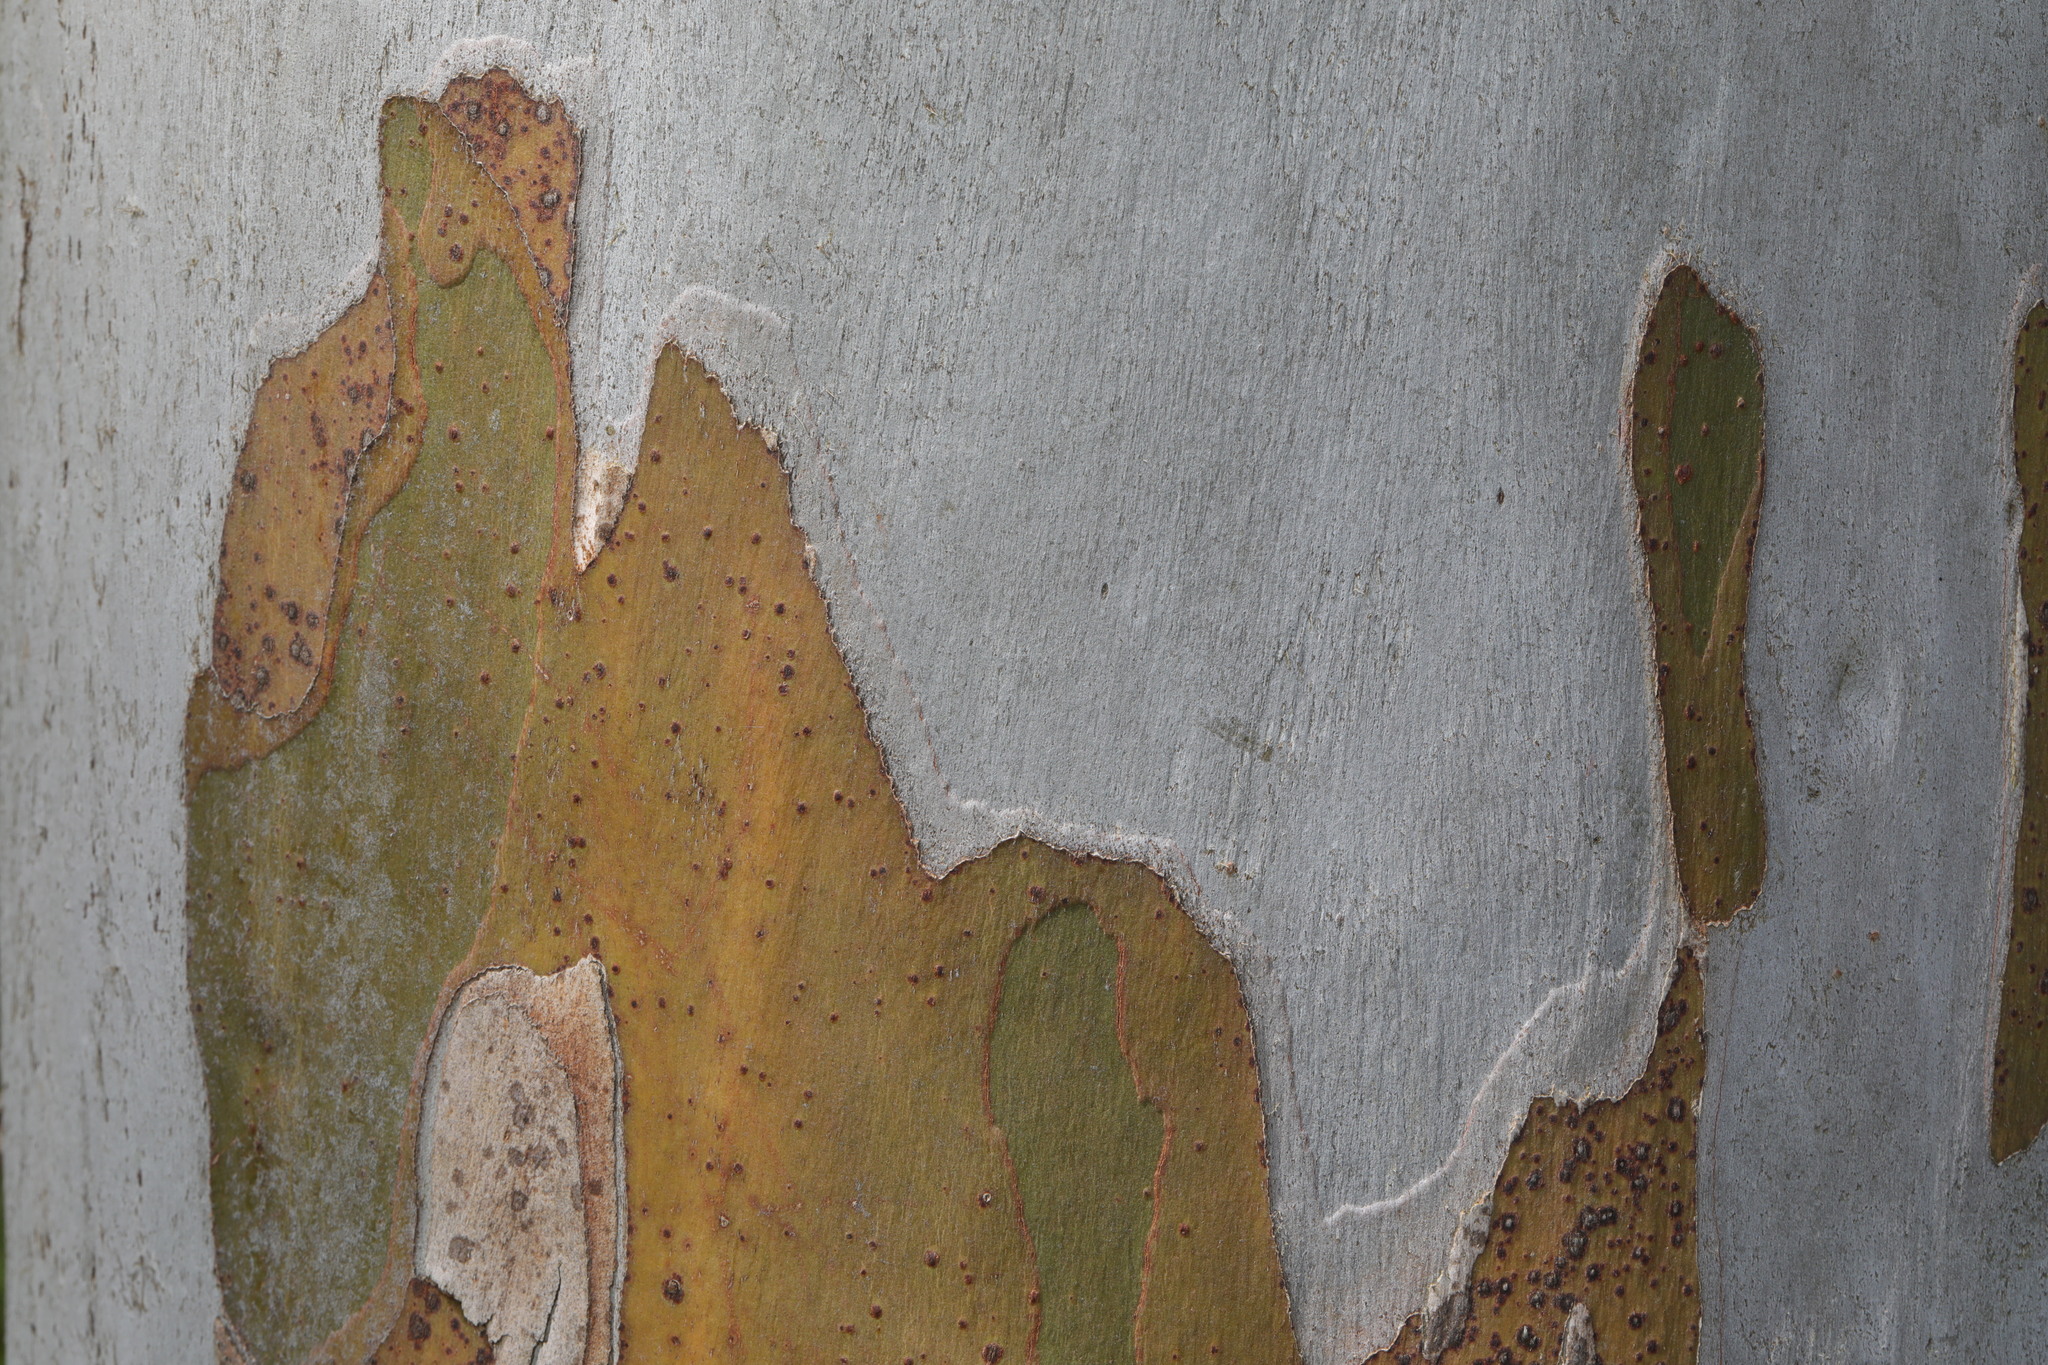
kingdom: Plantae
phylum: Tracheophyta
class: Magnoliopsida
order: Myrtales
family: Myrtaceae
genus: Eucalyptus
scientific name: Eucalyptus globulus
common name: Southern blue-gum
